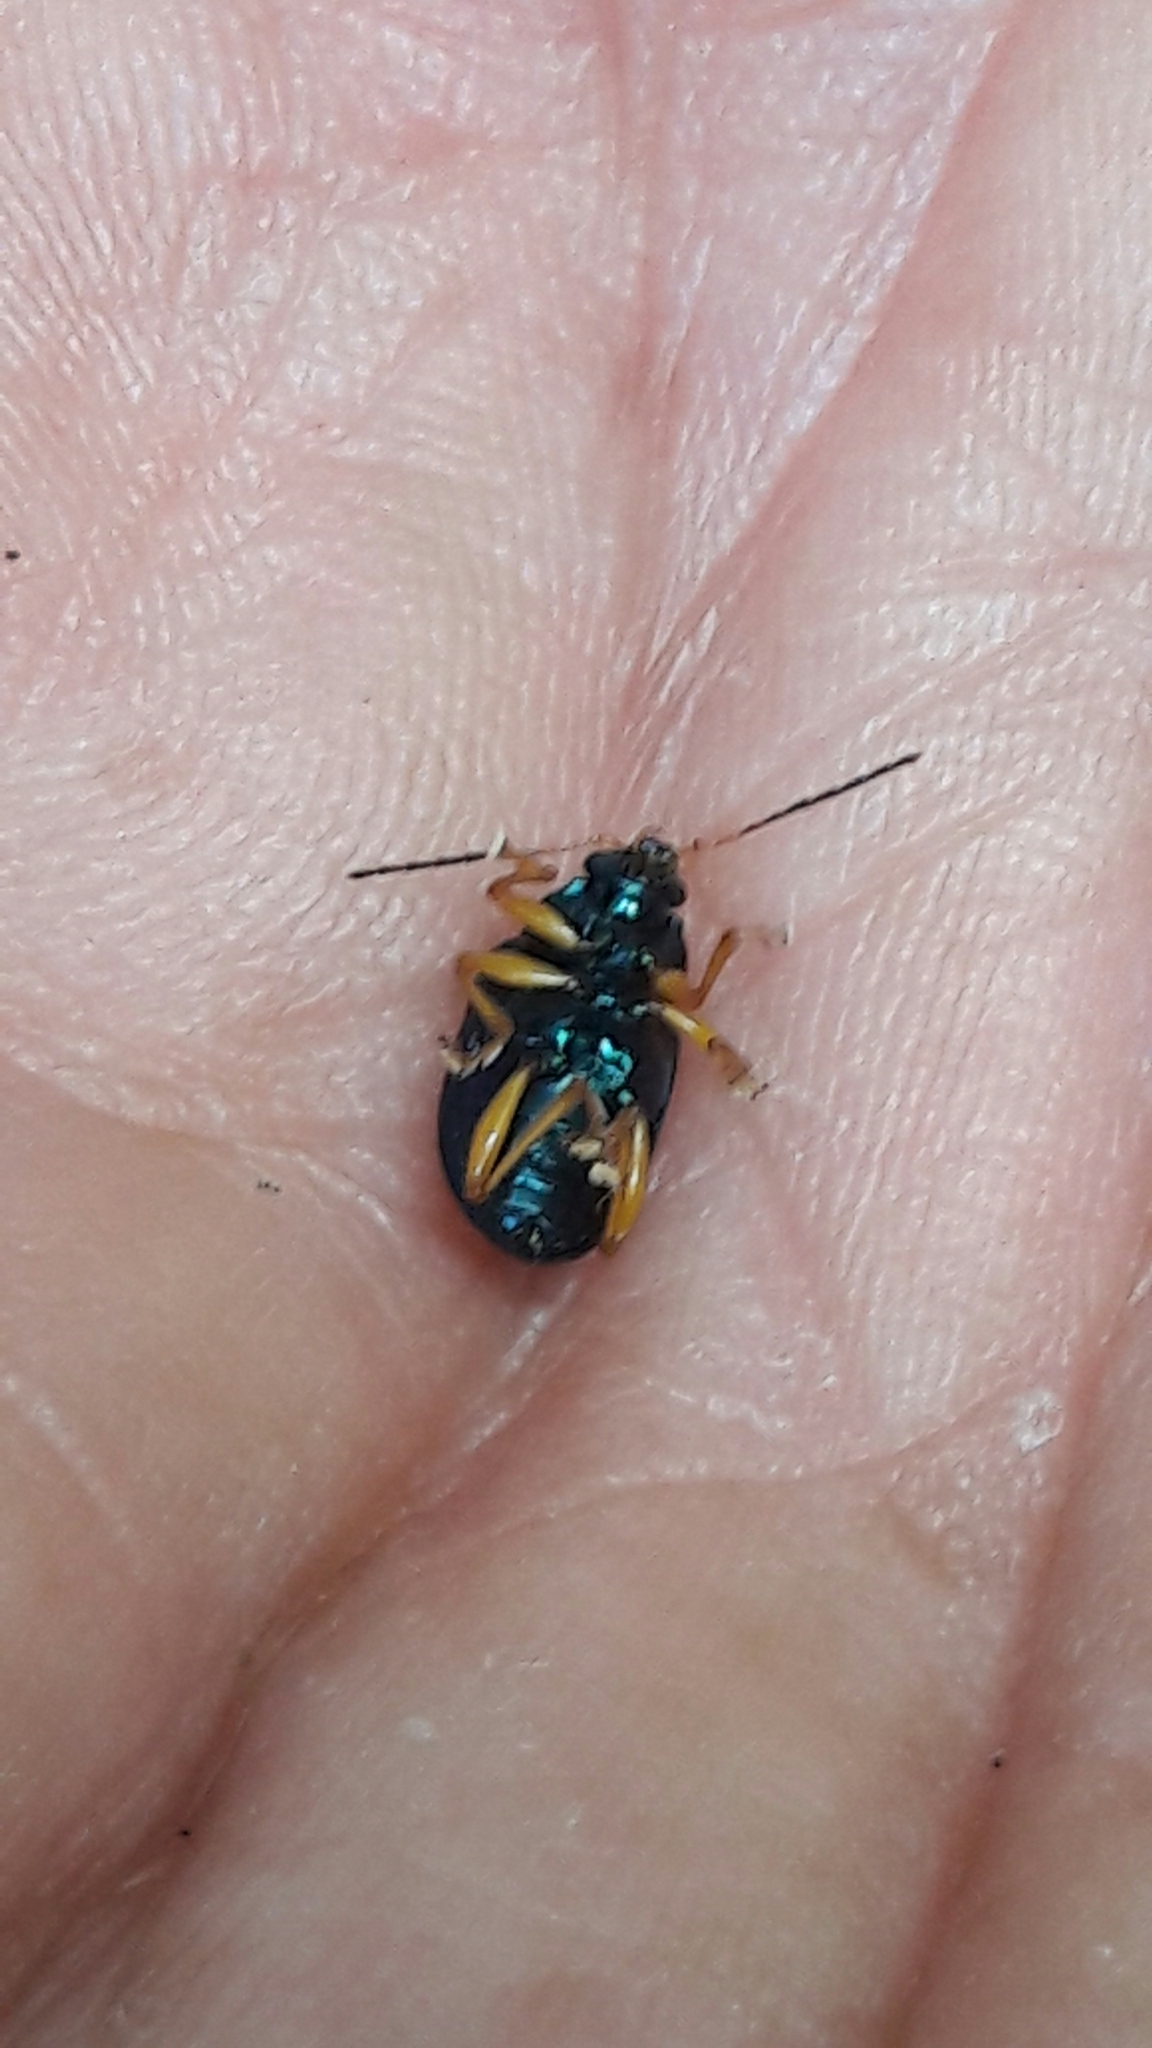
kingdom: Animalia
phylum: Arthropoda
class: Insecta
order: Coleoptera
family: Chrysomelidae
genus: Nodocolaspis
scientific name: Nodocolaspis
